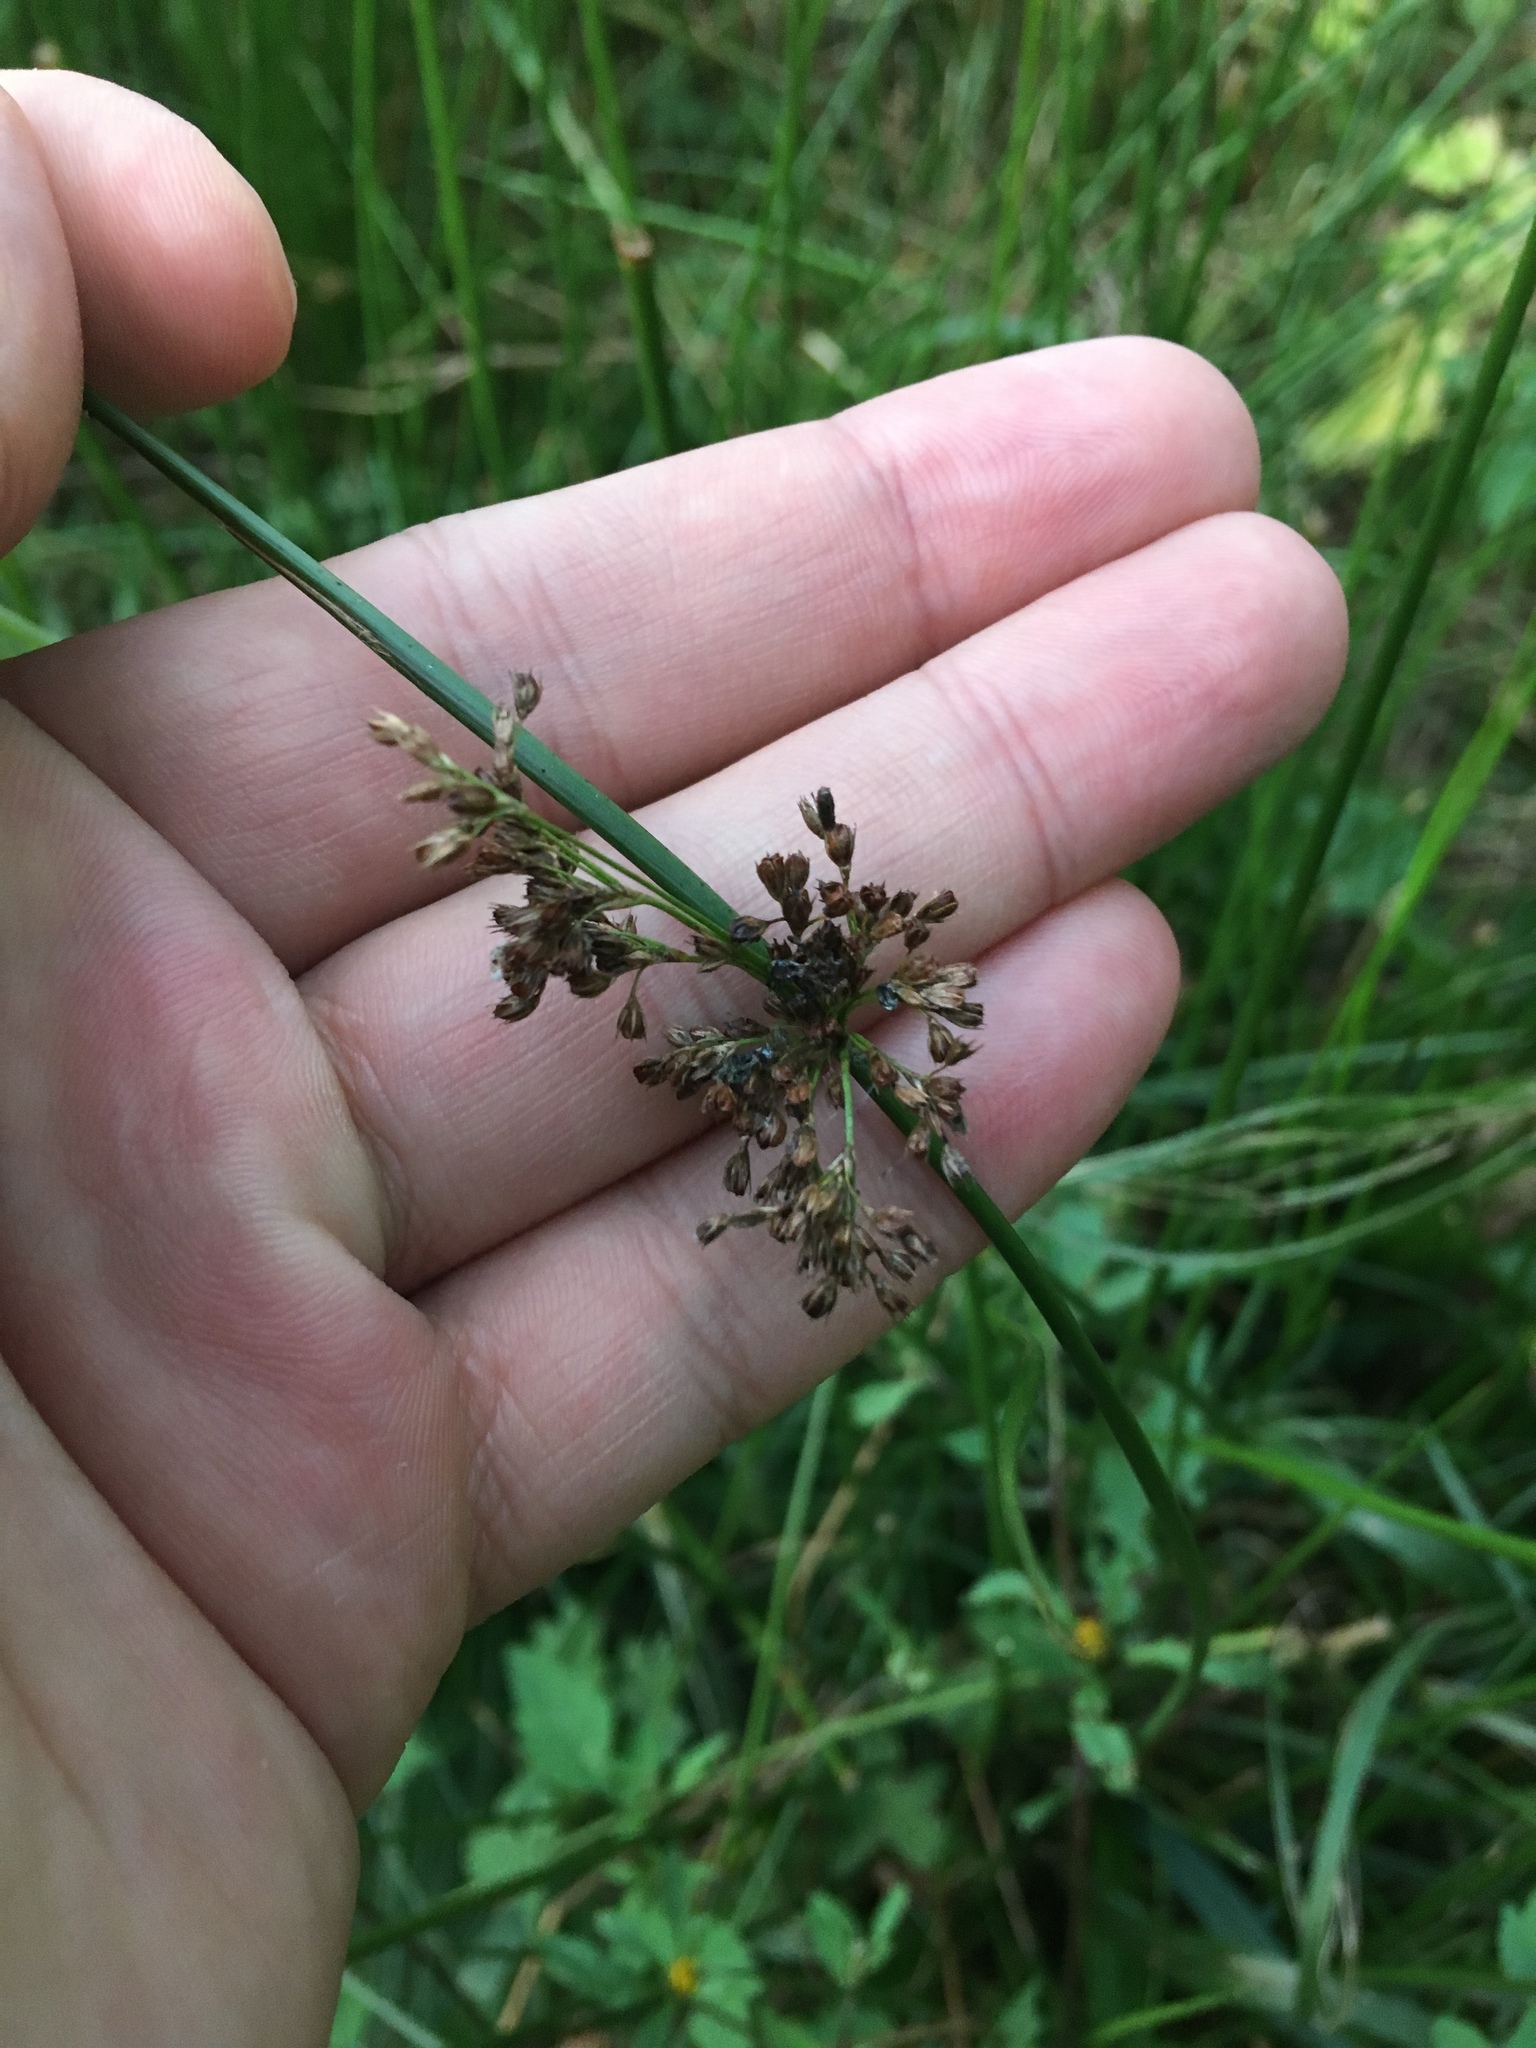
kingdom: Plantae
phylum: Tracheophyta
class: Liliopsida
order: Poales
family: Juncaceae
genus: Juncus
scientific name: Juncus effusus
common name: Soft rush
